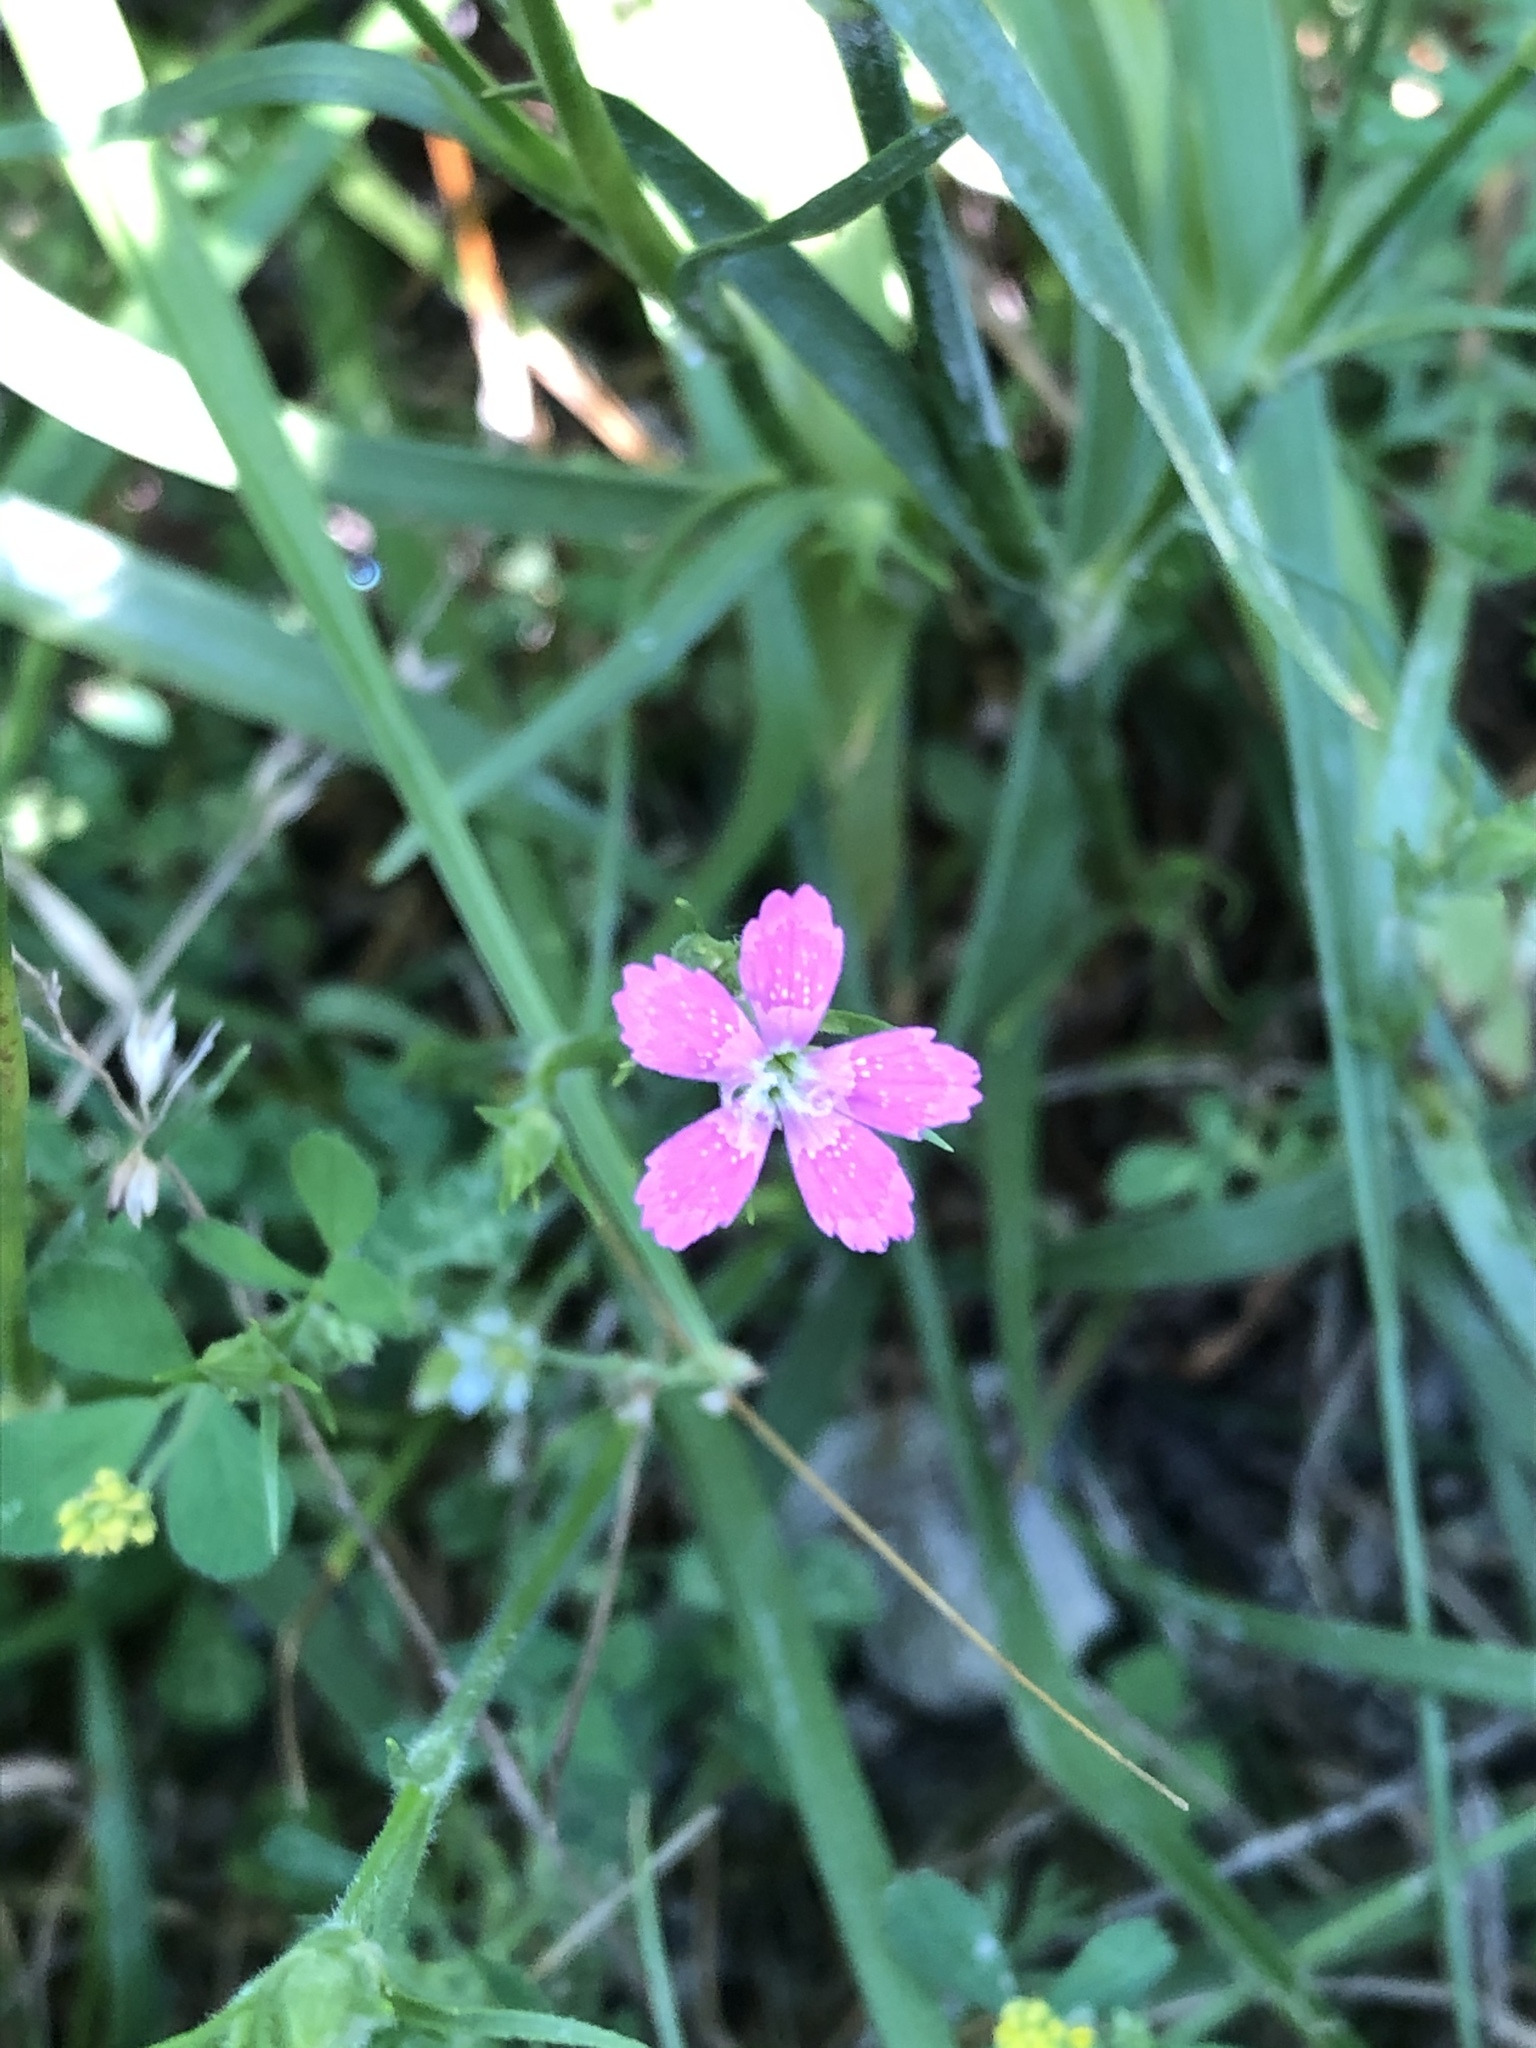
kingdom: Plantae
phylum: Tracheophyta
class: Magnoliopsida
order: Caryophyllales
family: Caryophyllaceae
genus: Dianthus
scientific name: Dianthus armeria
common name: Deptford pink
